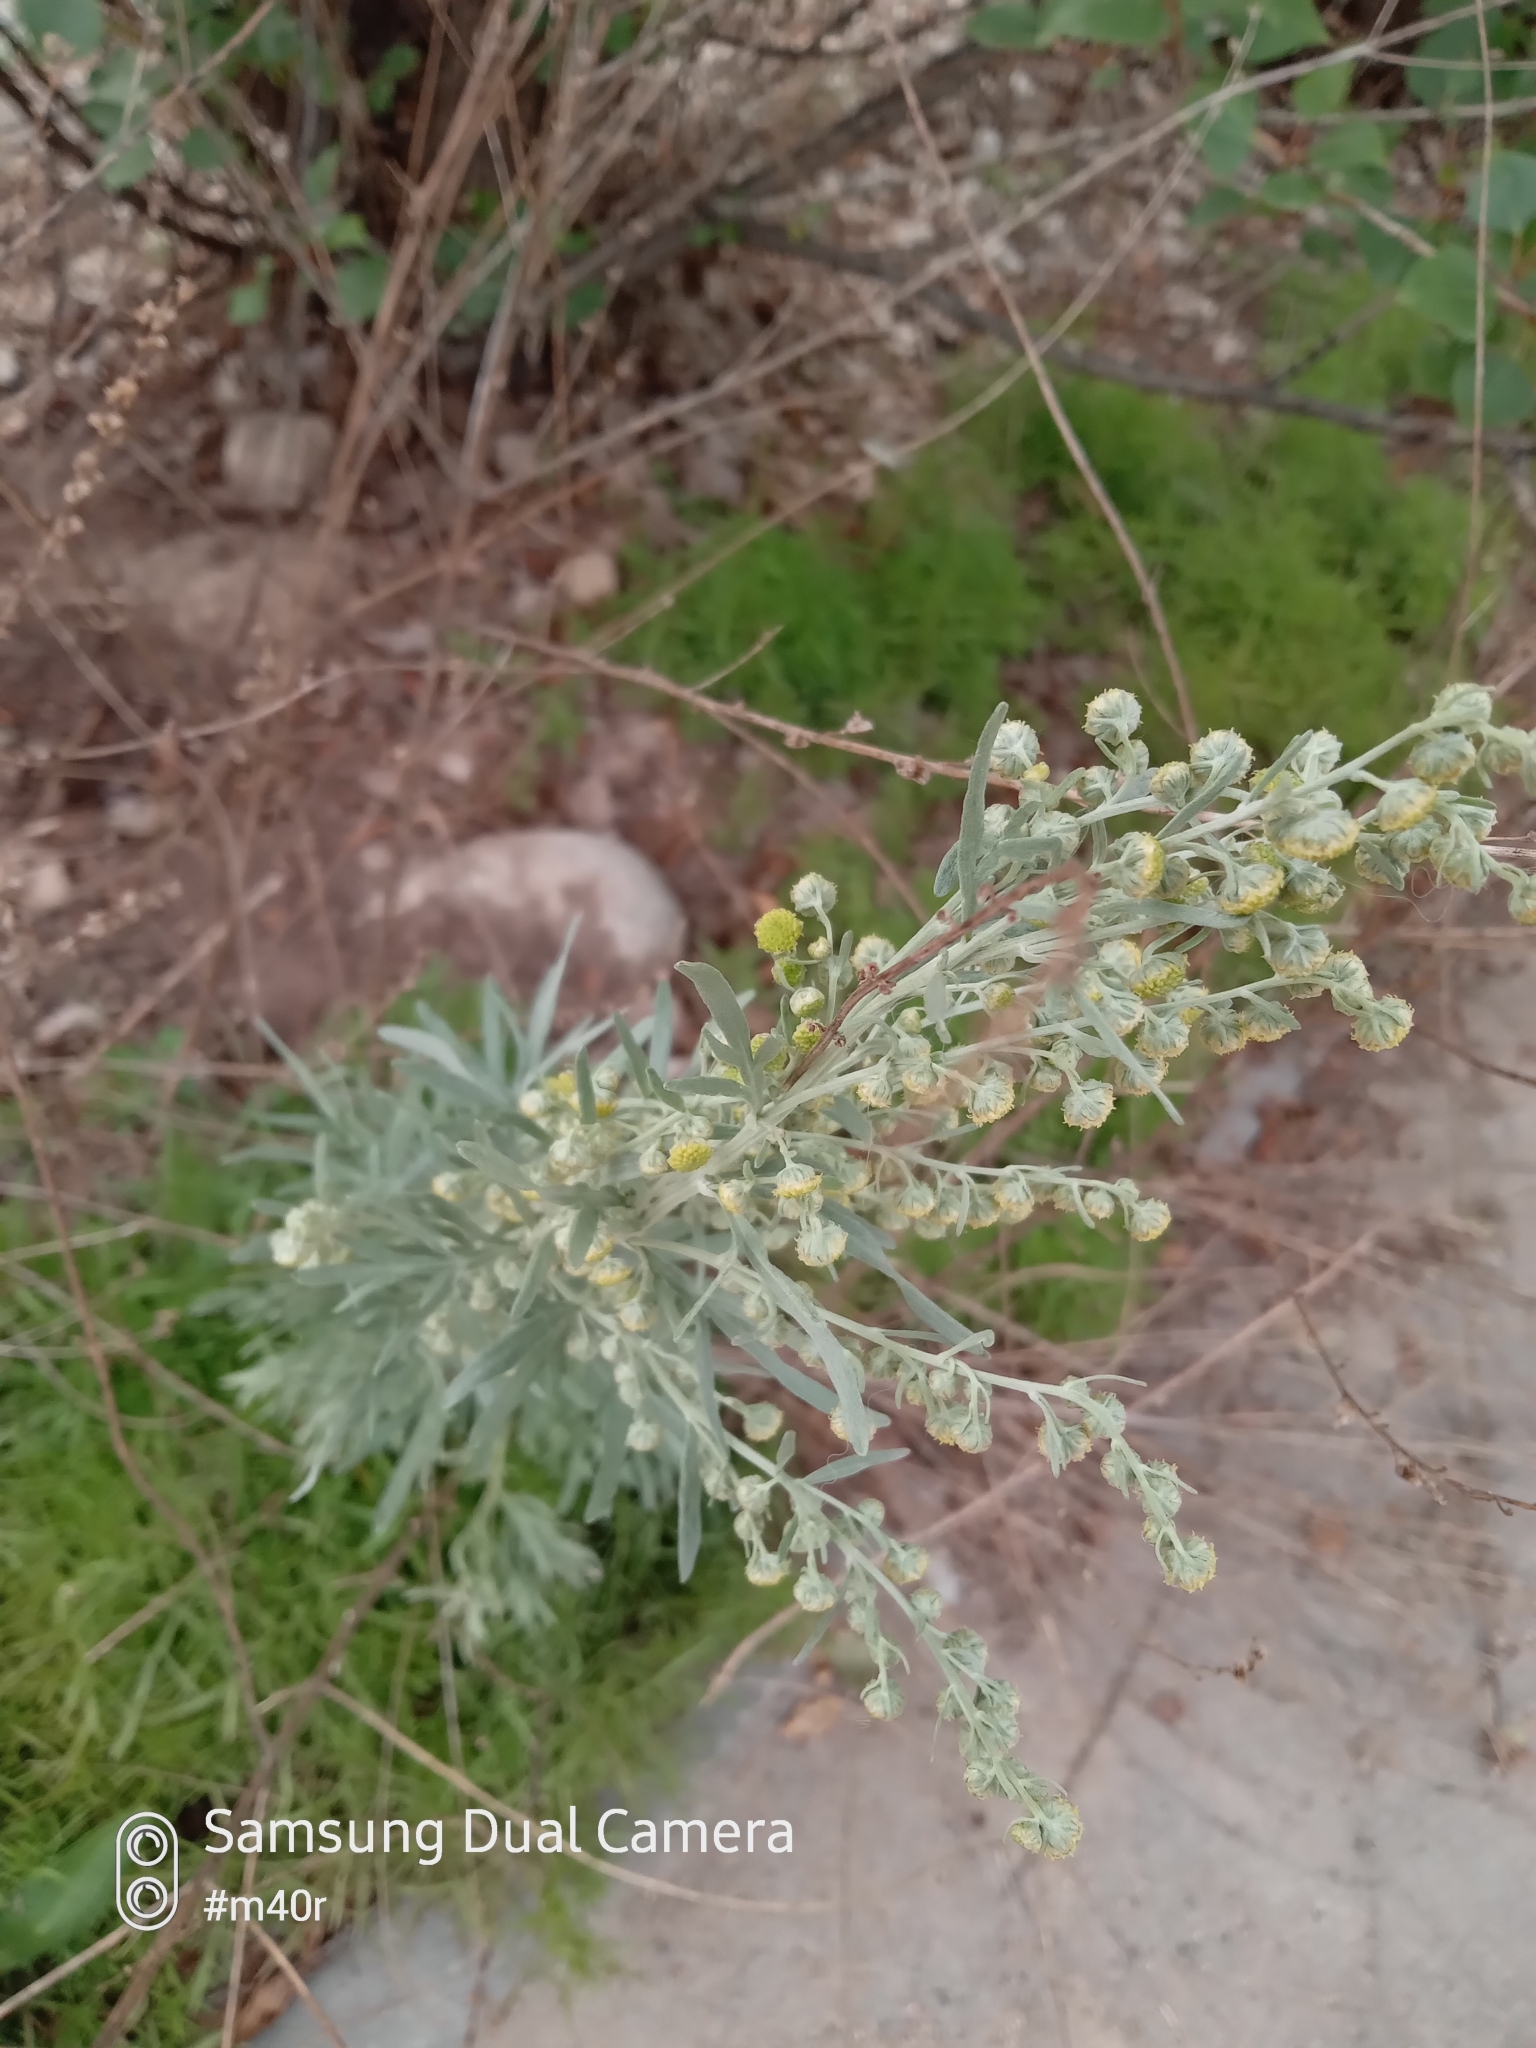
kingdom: Plantae
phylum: Tracheophyta
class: Magnoliopsida
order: Asterales
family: Asteraceae
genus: Artemisia
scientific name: Artemisia absinthium
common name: Wormwood
